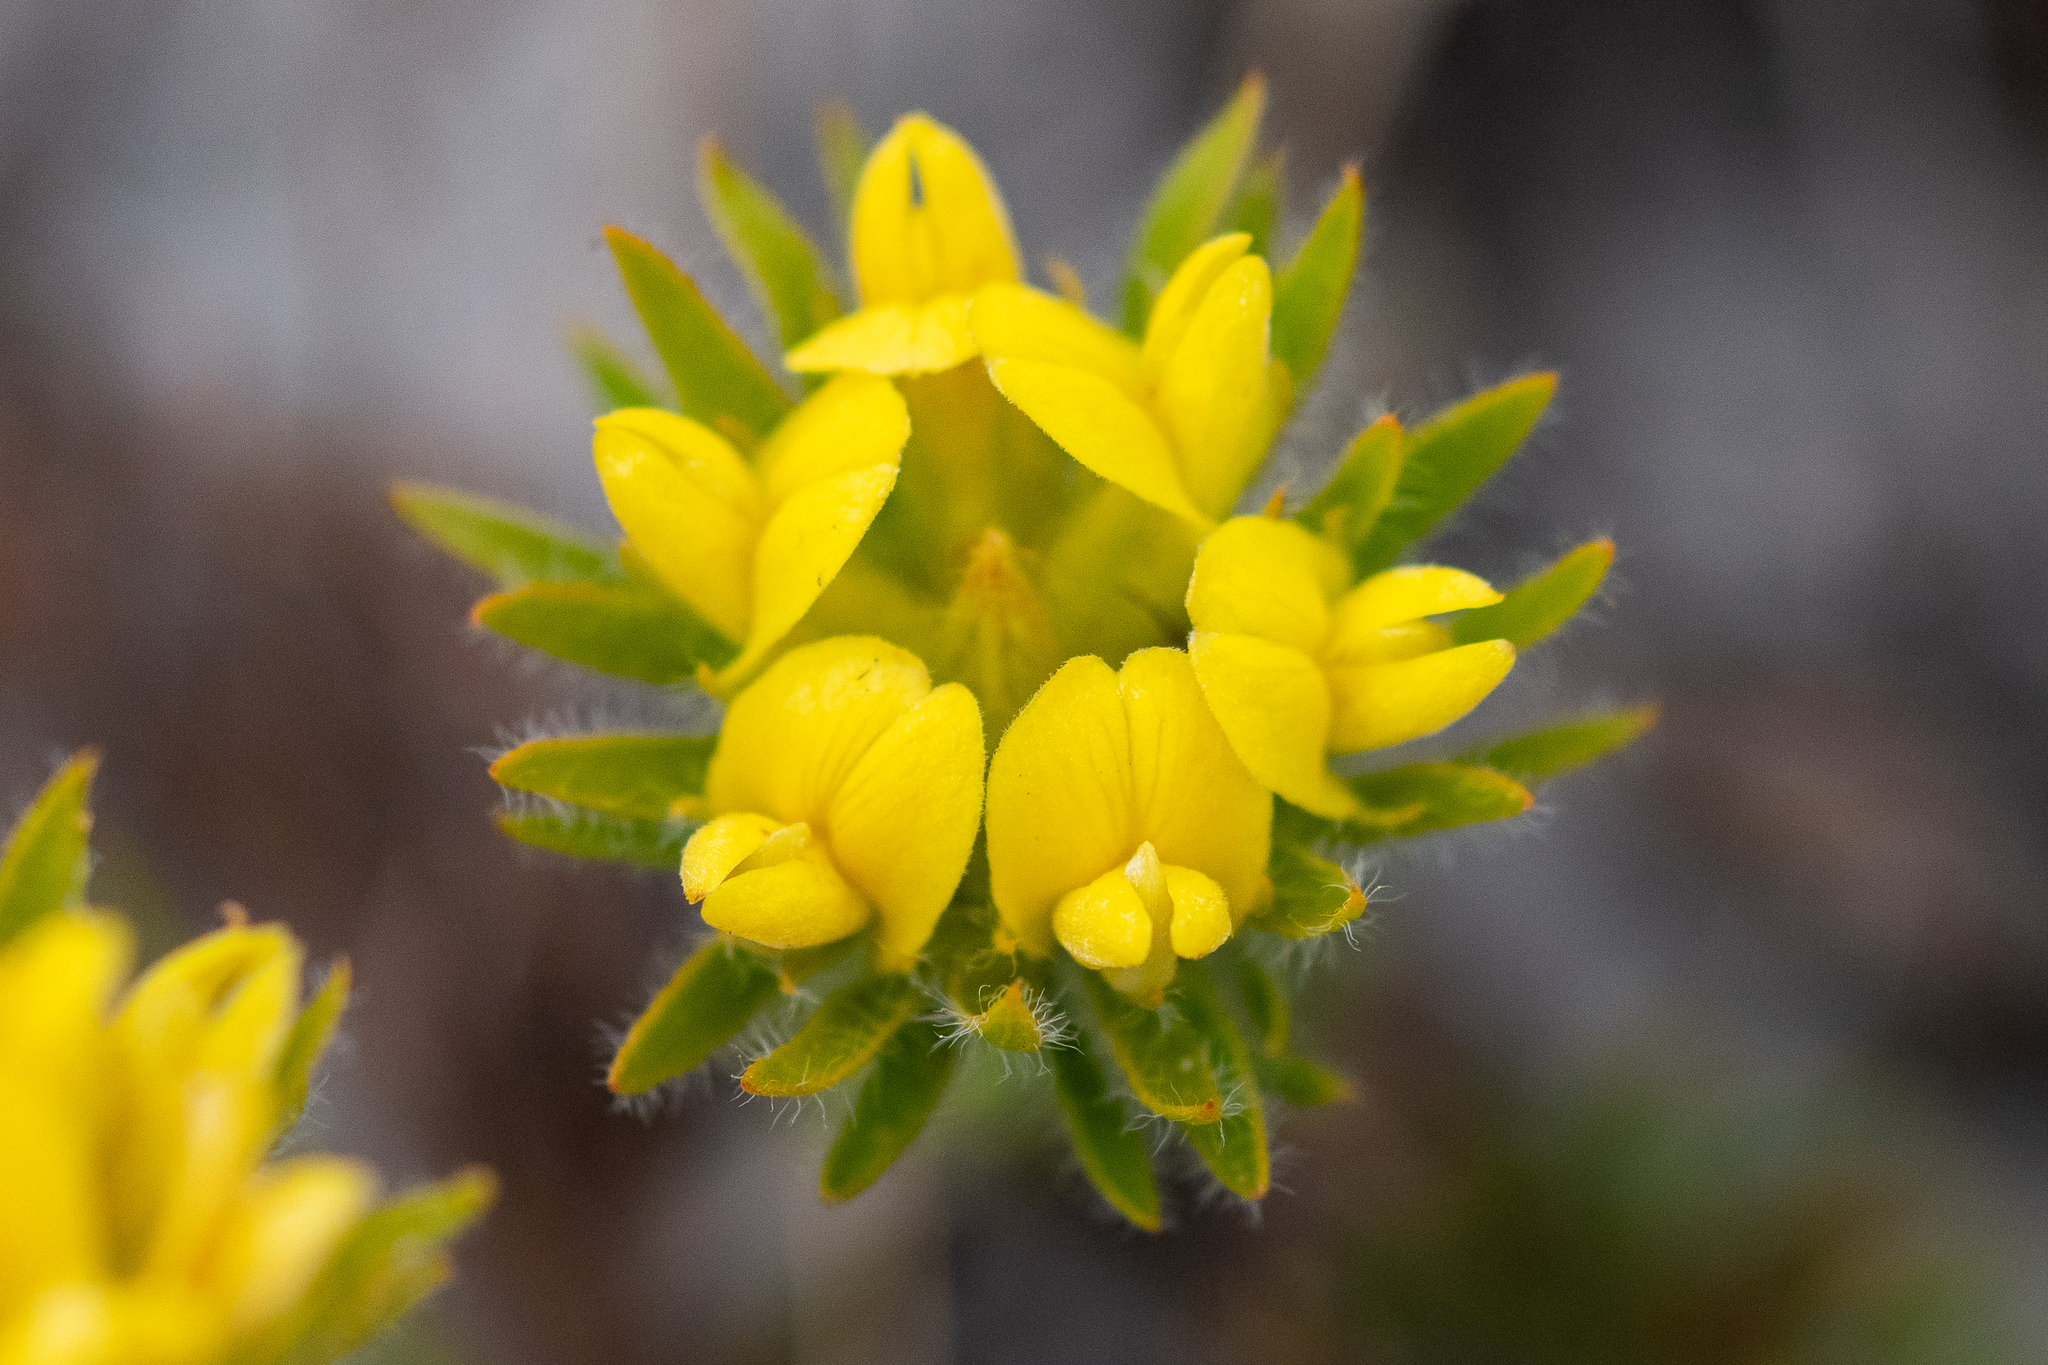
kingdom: Plantae
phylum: Tracheophyta
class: Magnoliopsida
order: Fabales
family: Fabaceae
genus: Aspalathus
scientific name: Aspalathus aspalathoides
